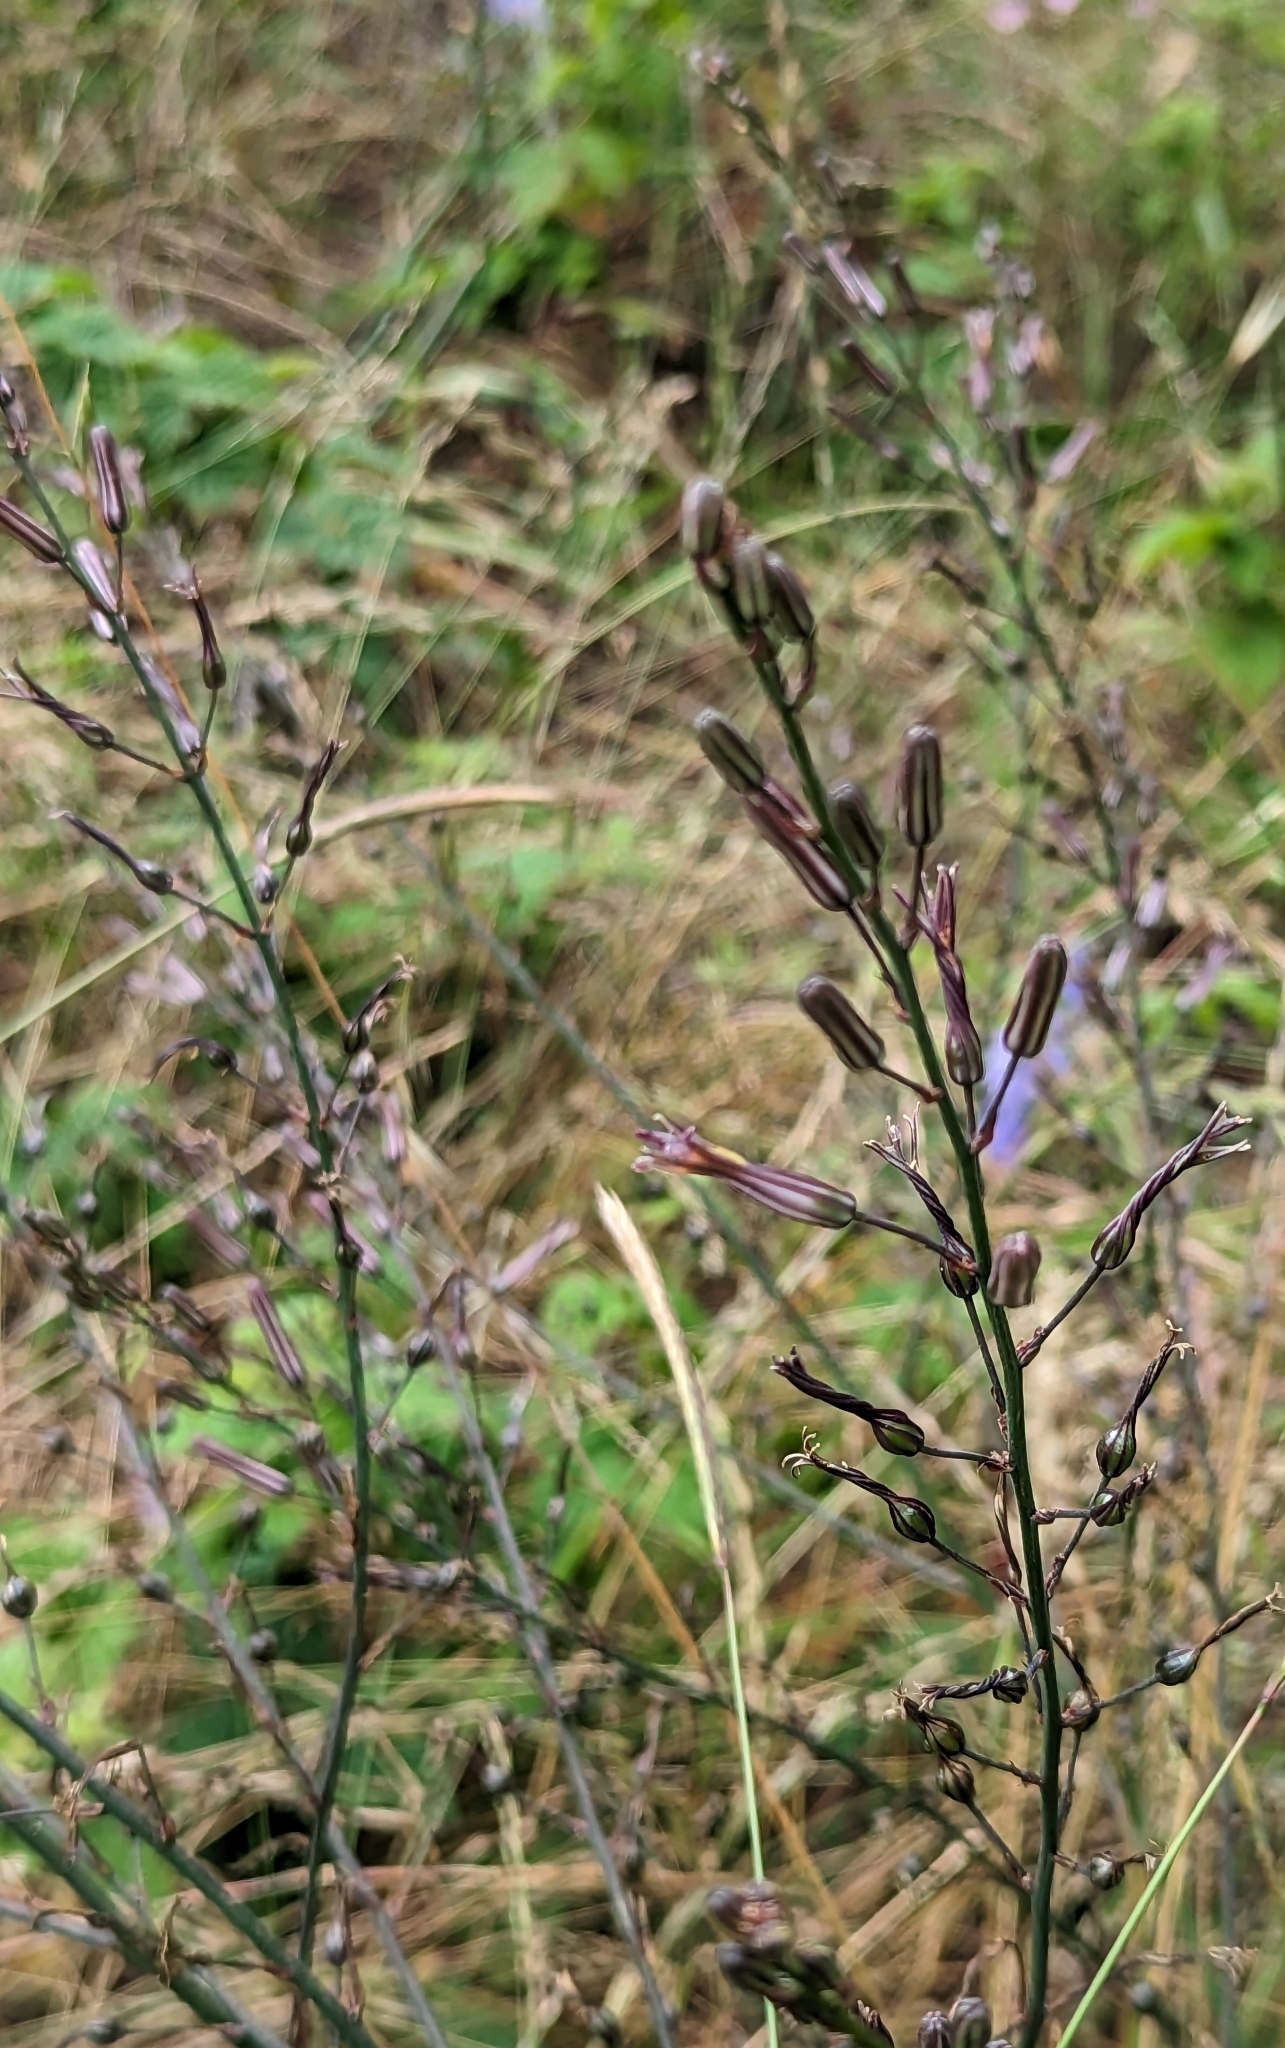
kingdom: Plantae
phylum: Tracheophyta
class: Liliopsida
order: Asparagales
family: Asparagaceae
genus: Chlorogalum
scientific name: Chlorogalum pomeridianum
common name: Amole
